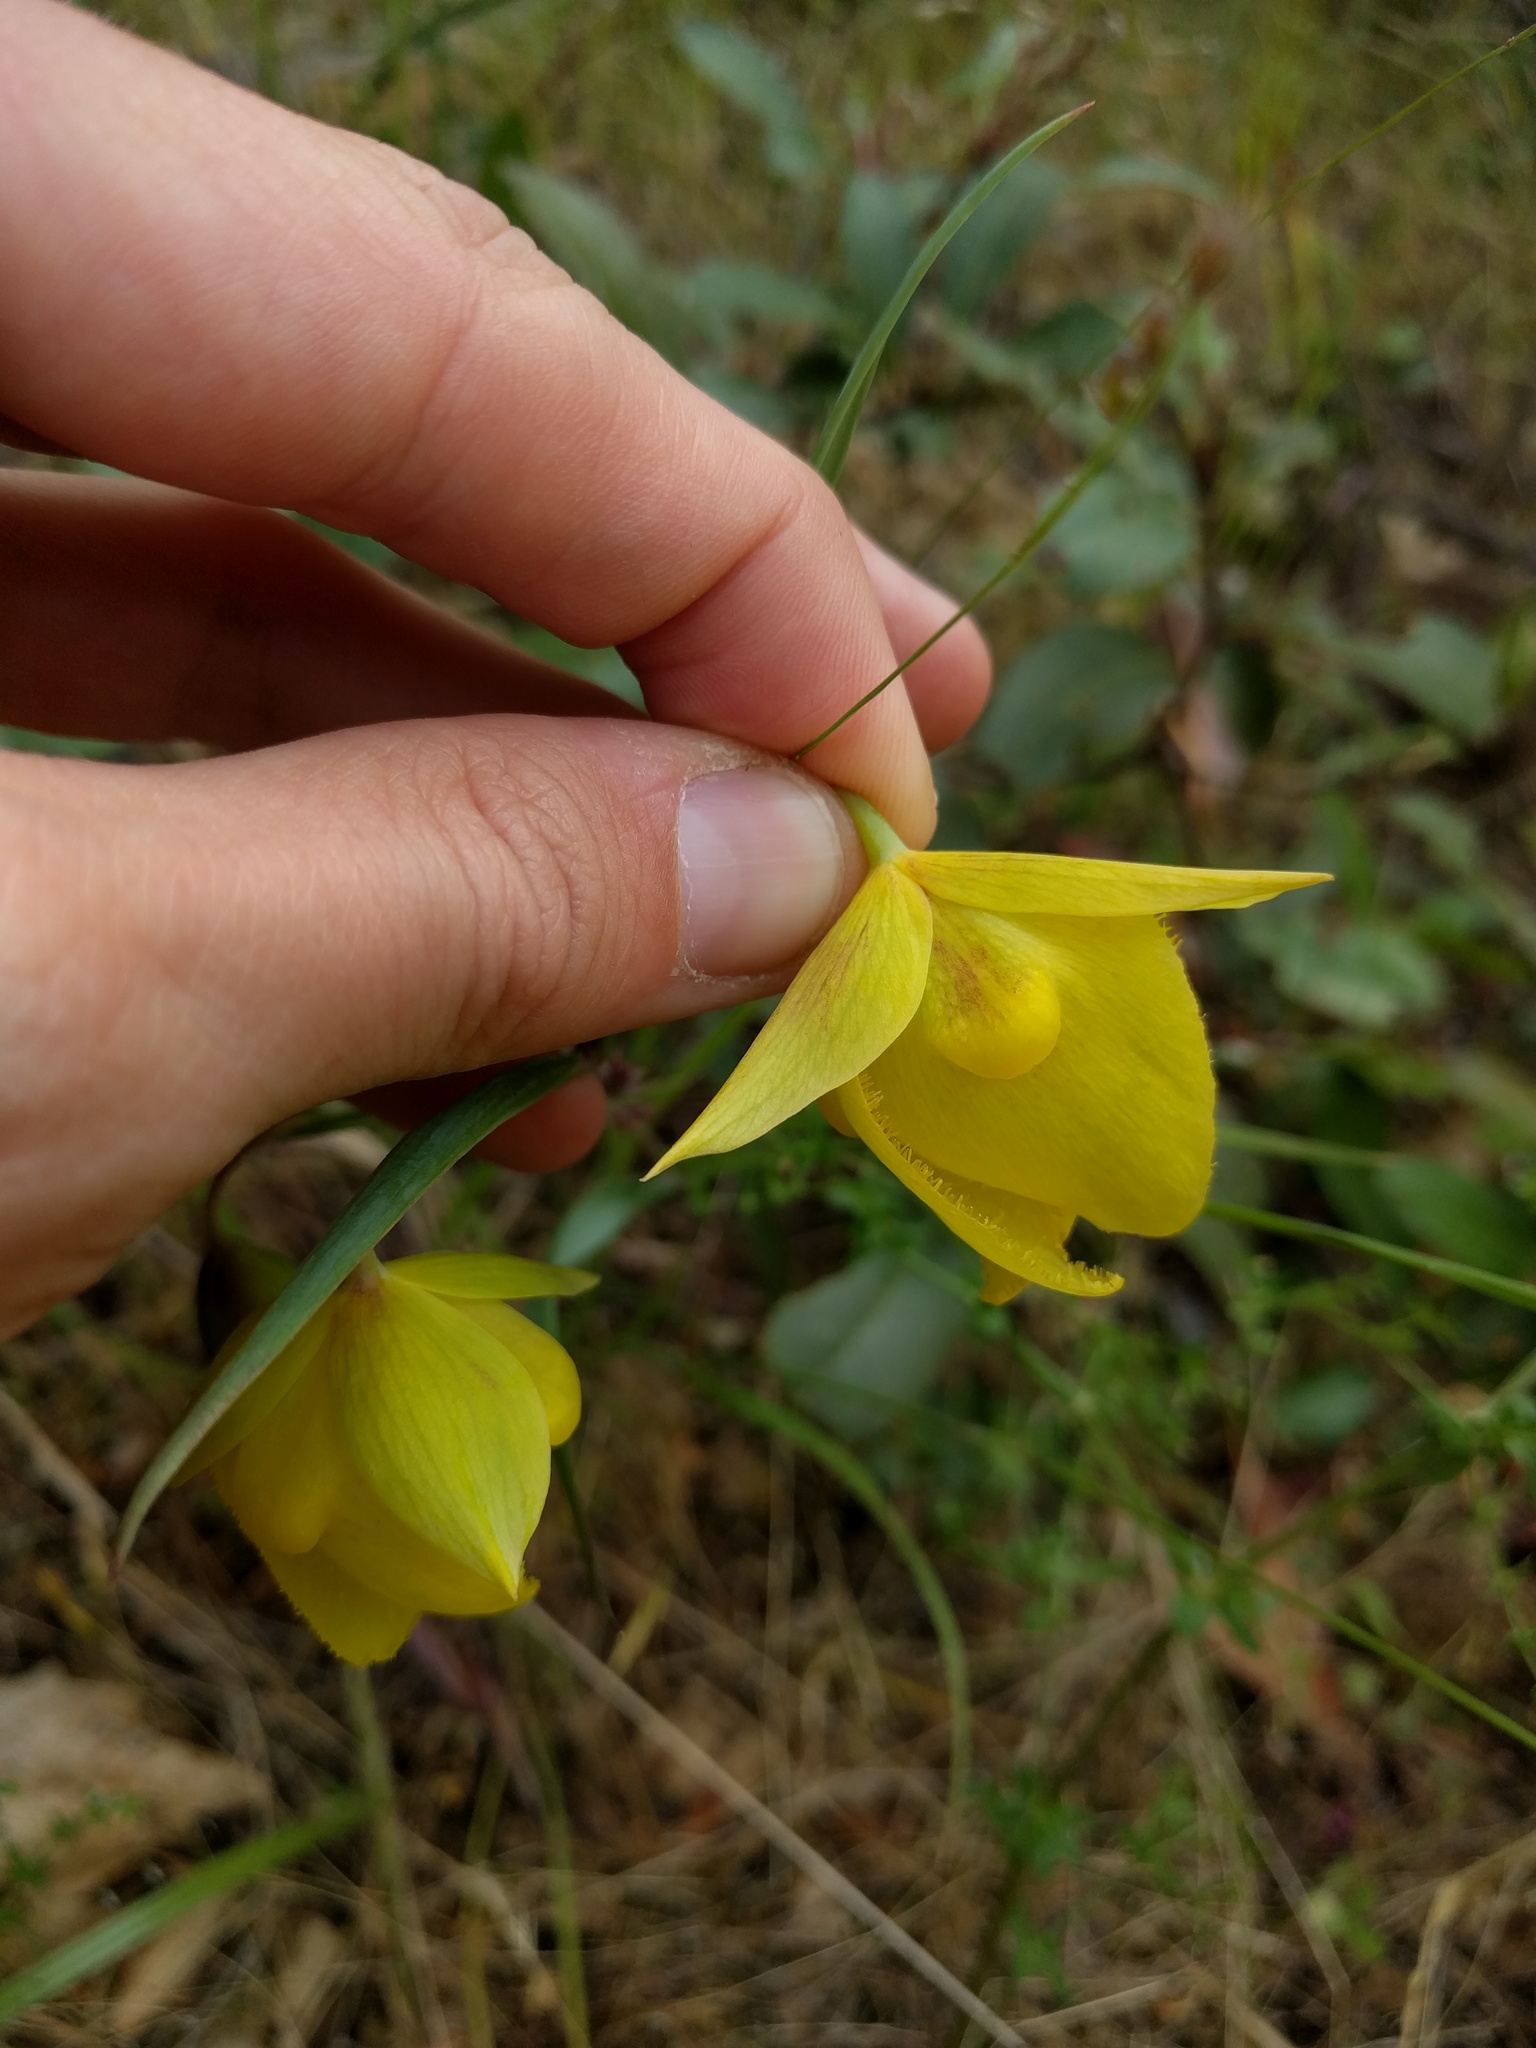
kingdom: Plantae
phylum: Tracheophyta
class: Liliopsida
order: Liliales
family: Liliaceae
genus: Calochortus
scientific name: Calochortus pulchellus
